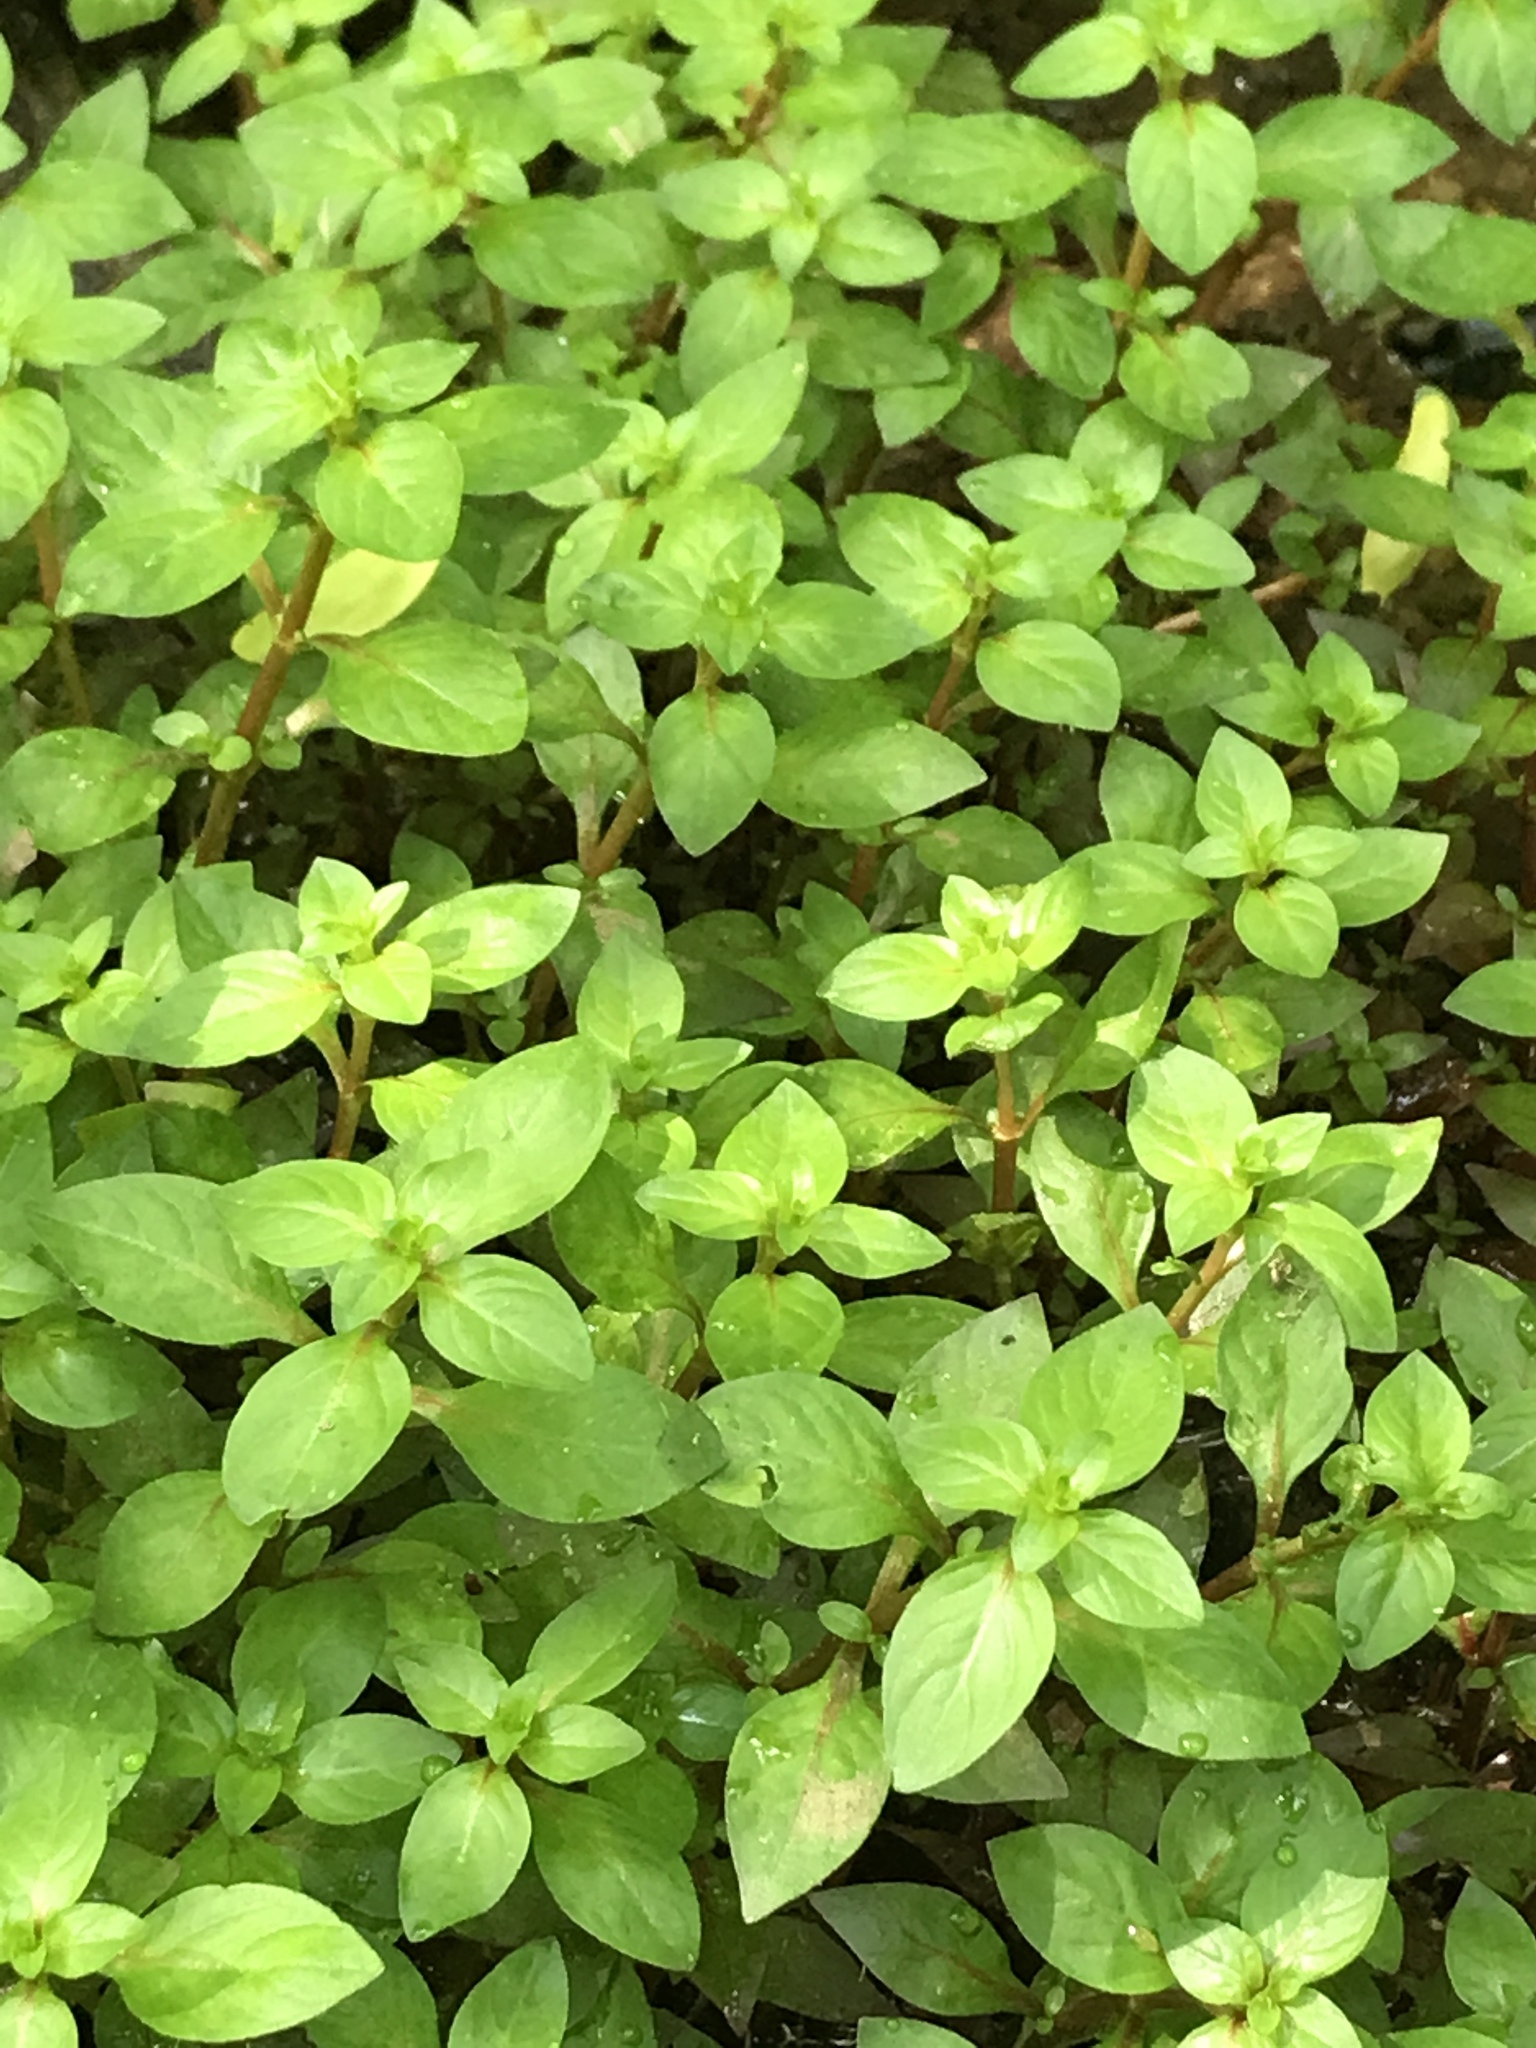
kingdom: Plantae
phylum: Tracheophyta
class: Magnoliopsida
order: Myrtales
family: Onagraceae
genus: Ludwigia
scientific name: Ludwigia palustris
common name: Hampshire-purslane
